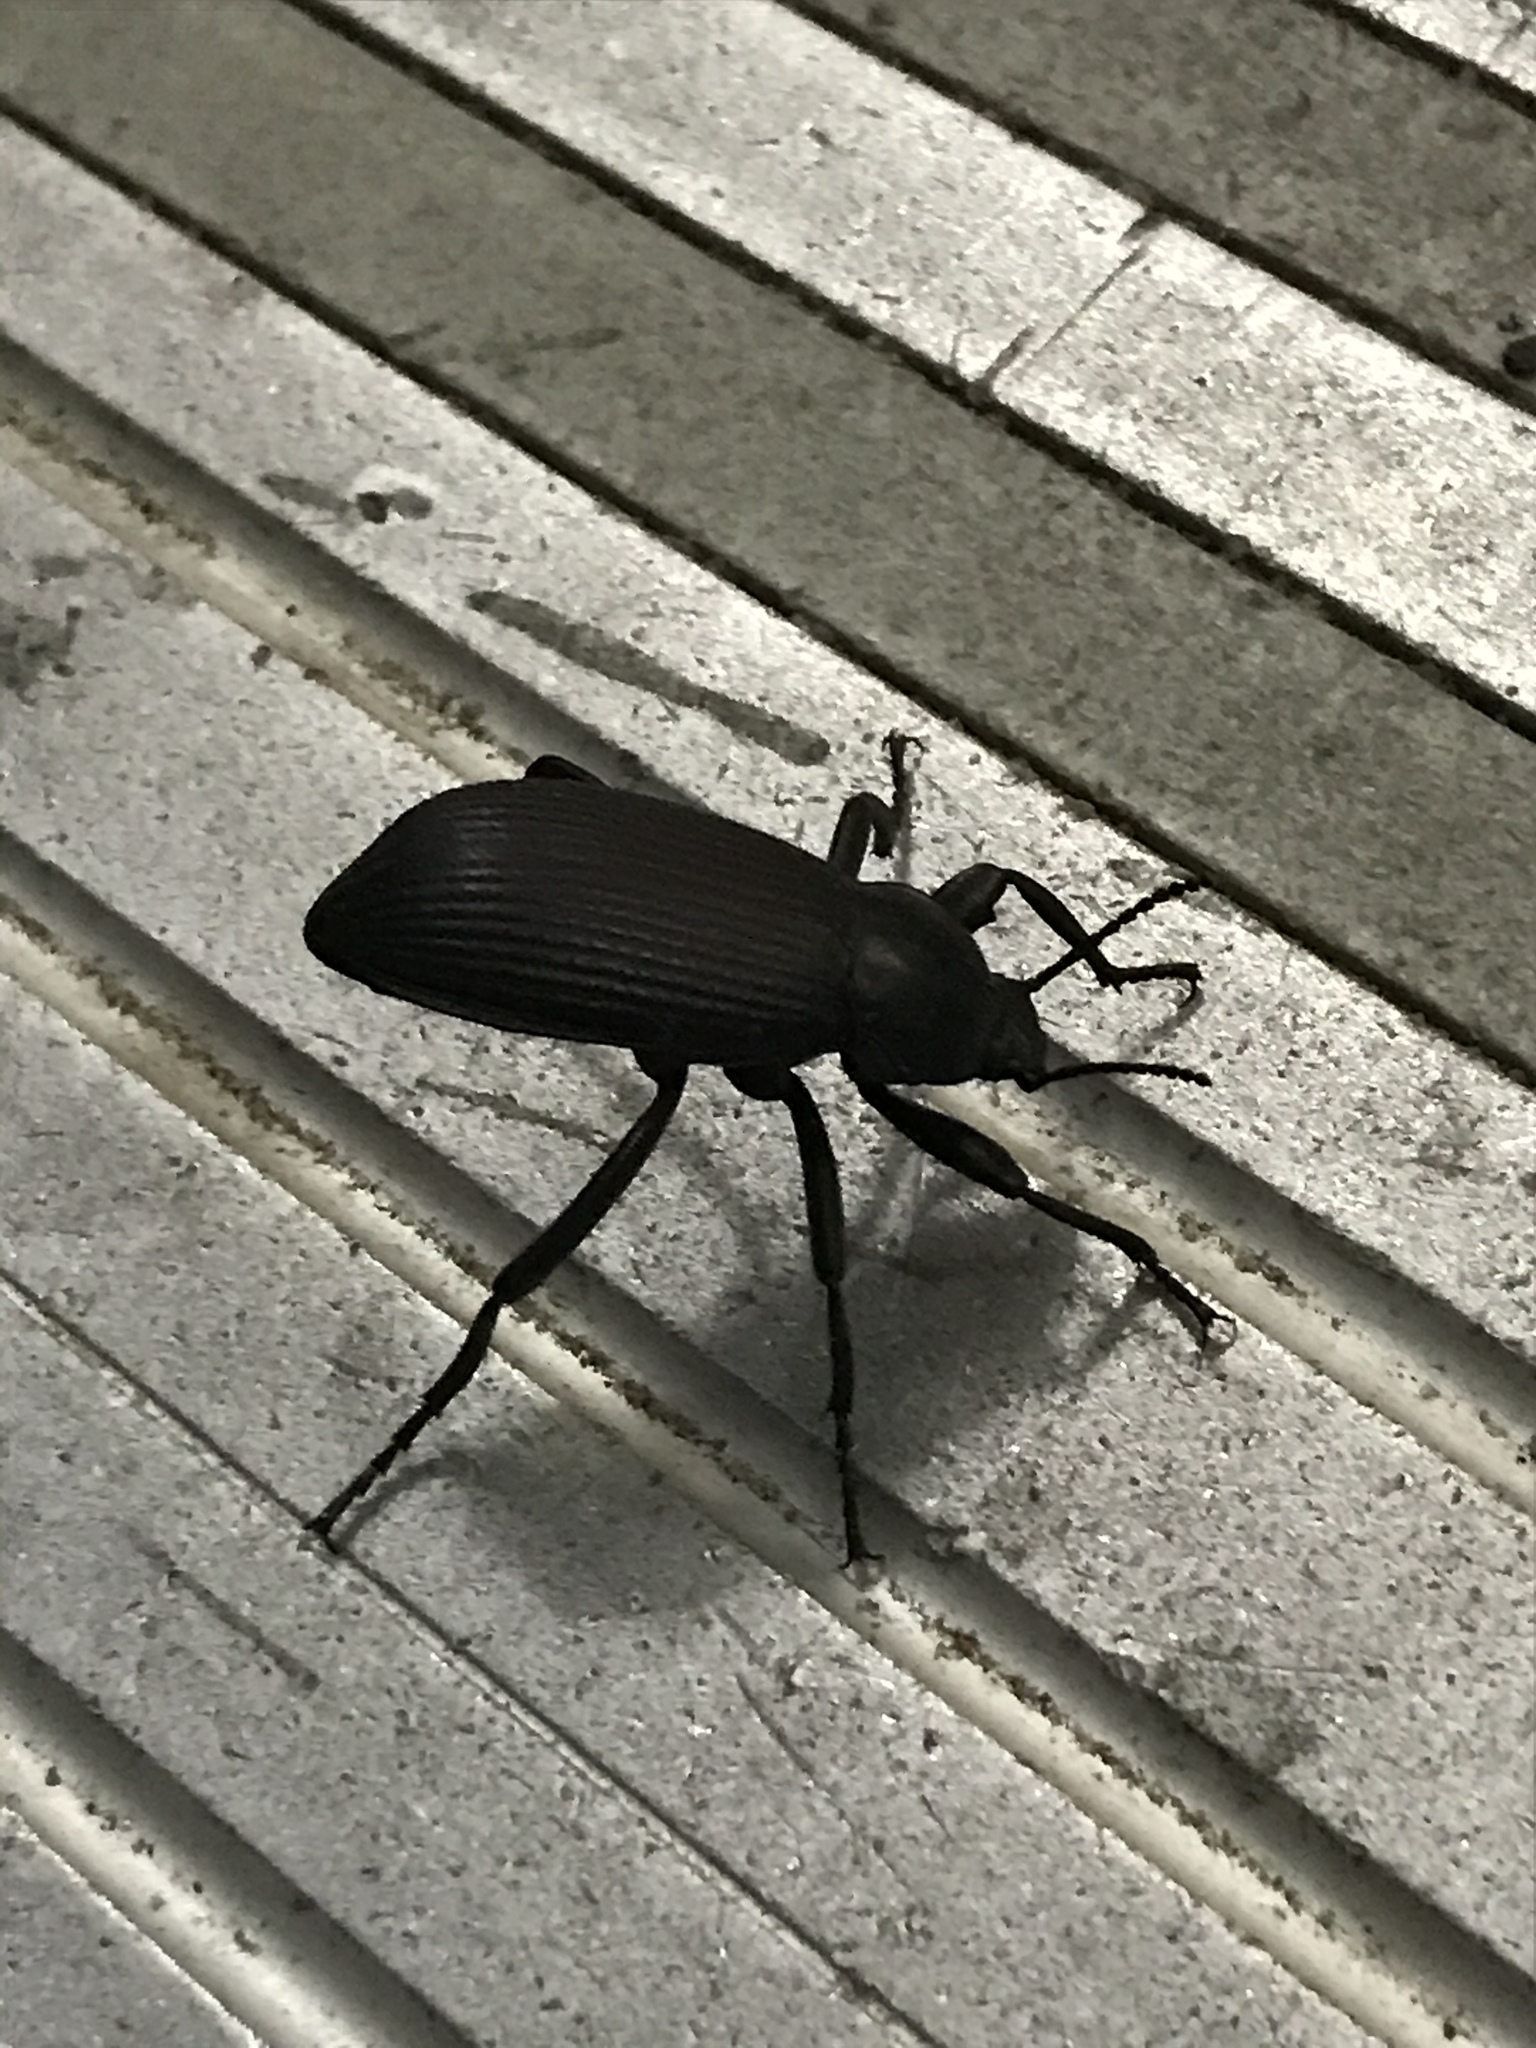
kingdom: Animalia
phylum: Arthropoda
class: Insecta
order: Coleoptera
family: Tenebrionidae
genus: Eleodes
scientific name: Eleodes obscura
